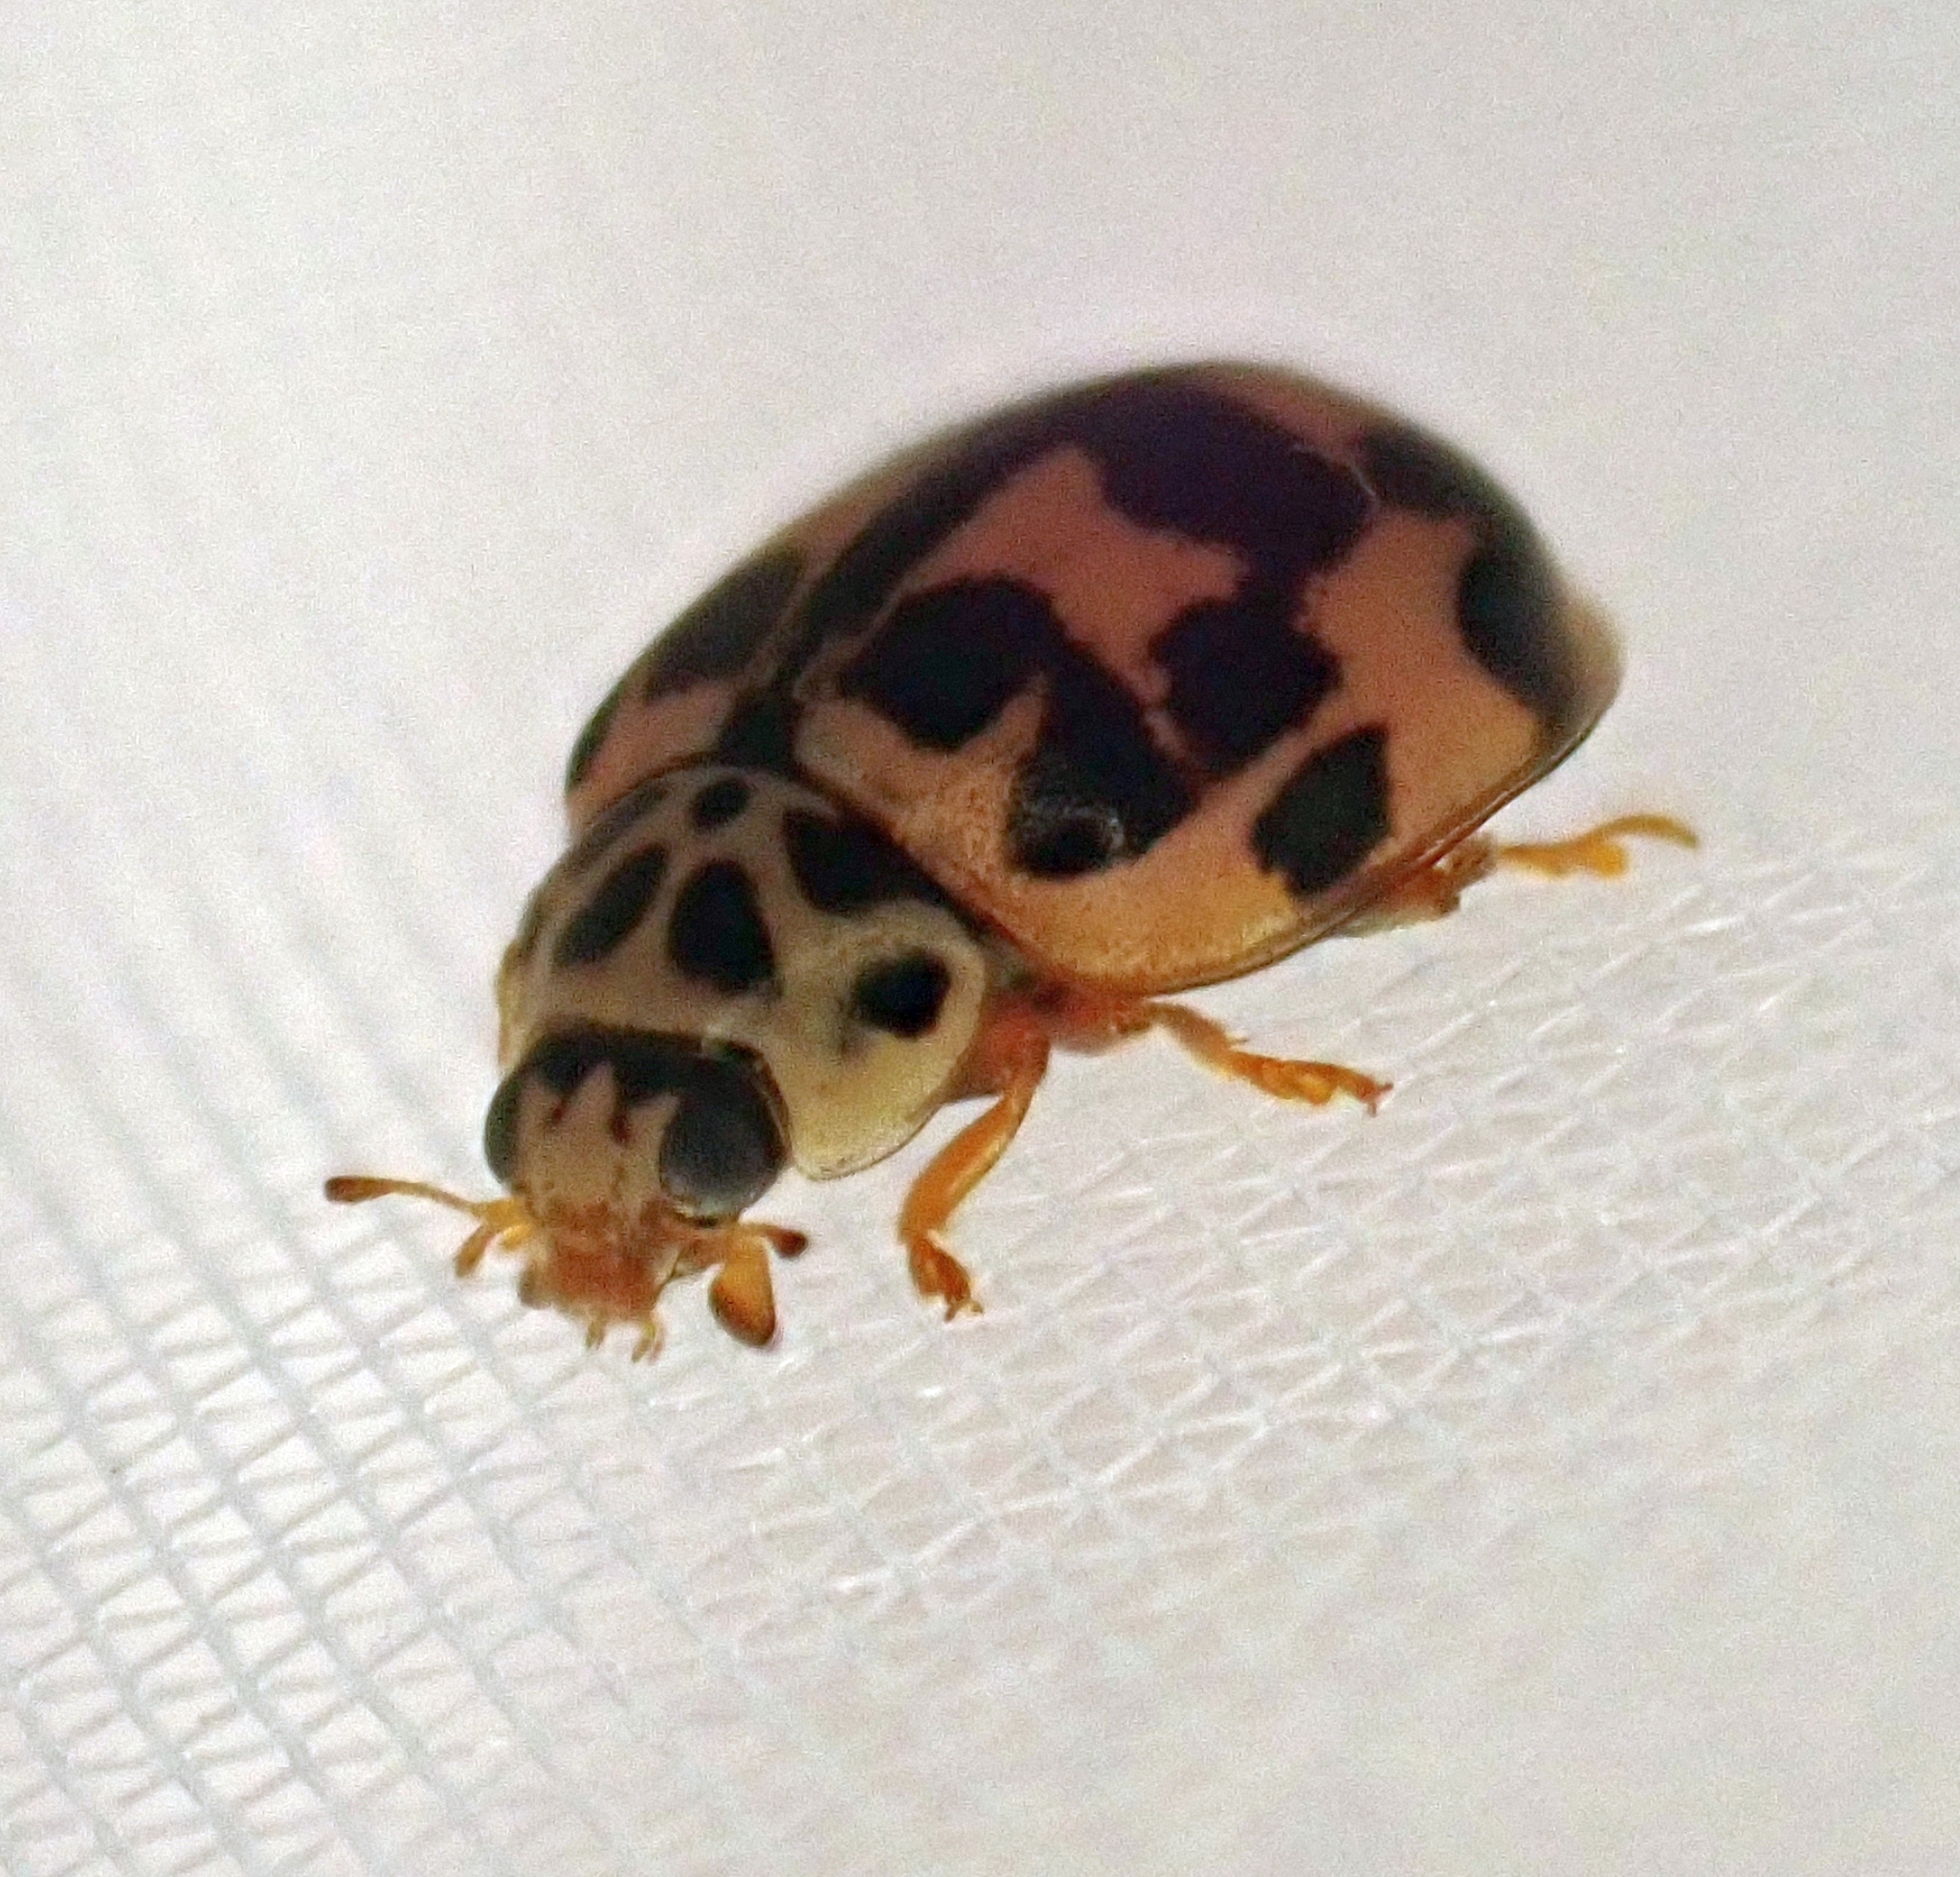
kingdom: Animalia
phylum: Arthropoda
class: Insecta
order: Coleoptera
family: Coccinellidae
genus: Oenopia
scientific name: Oenopia conglobata
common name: Ladybird beetle
